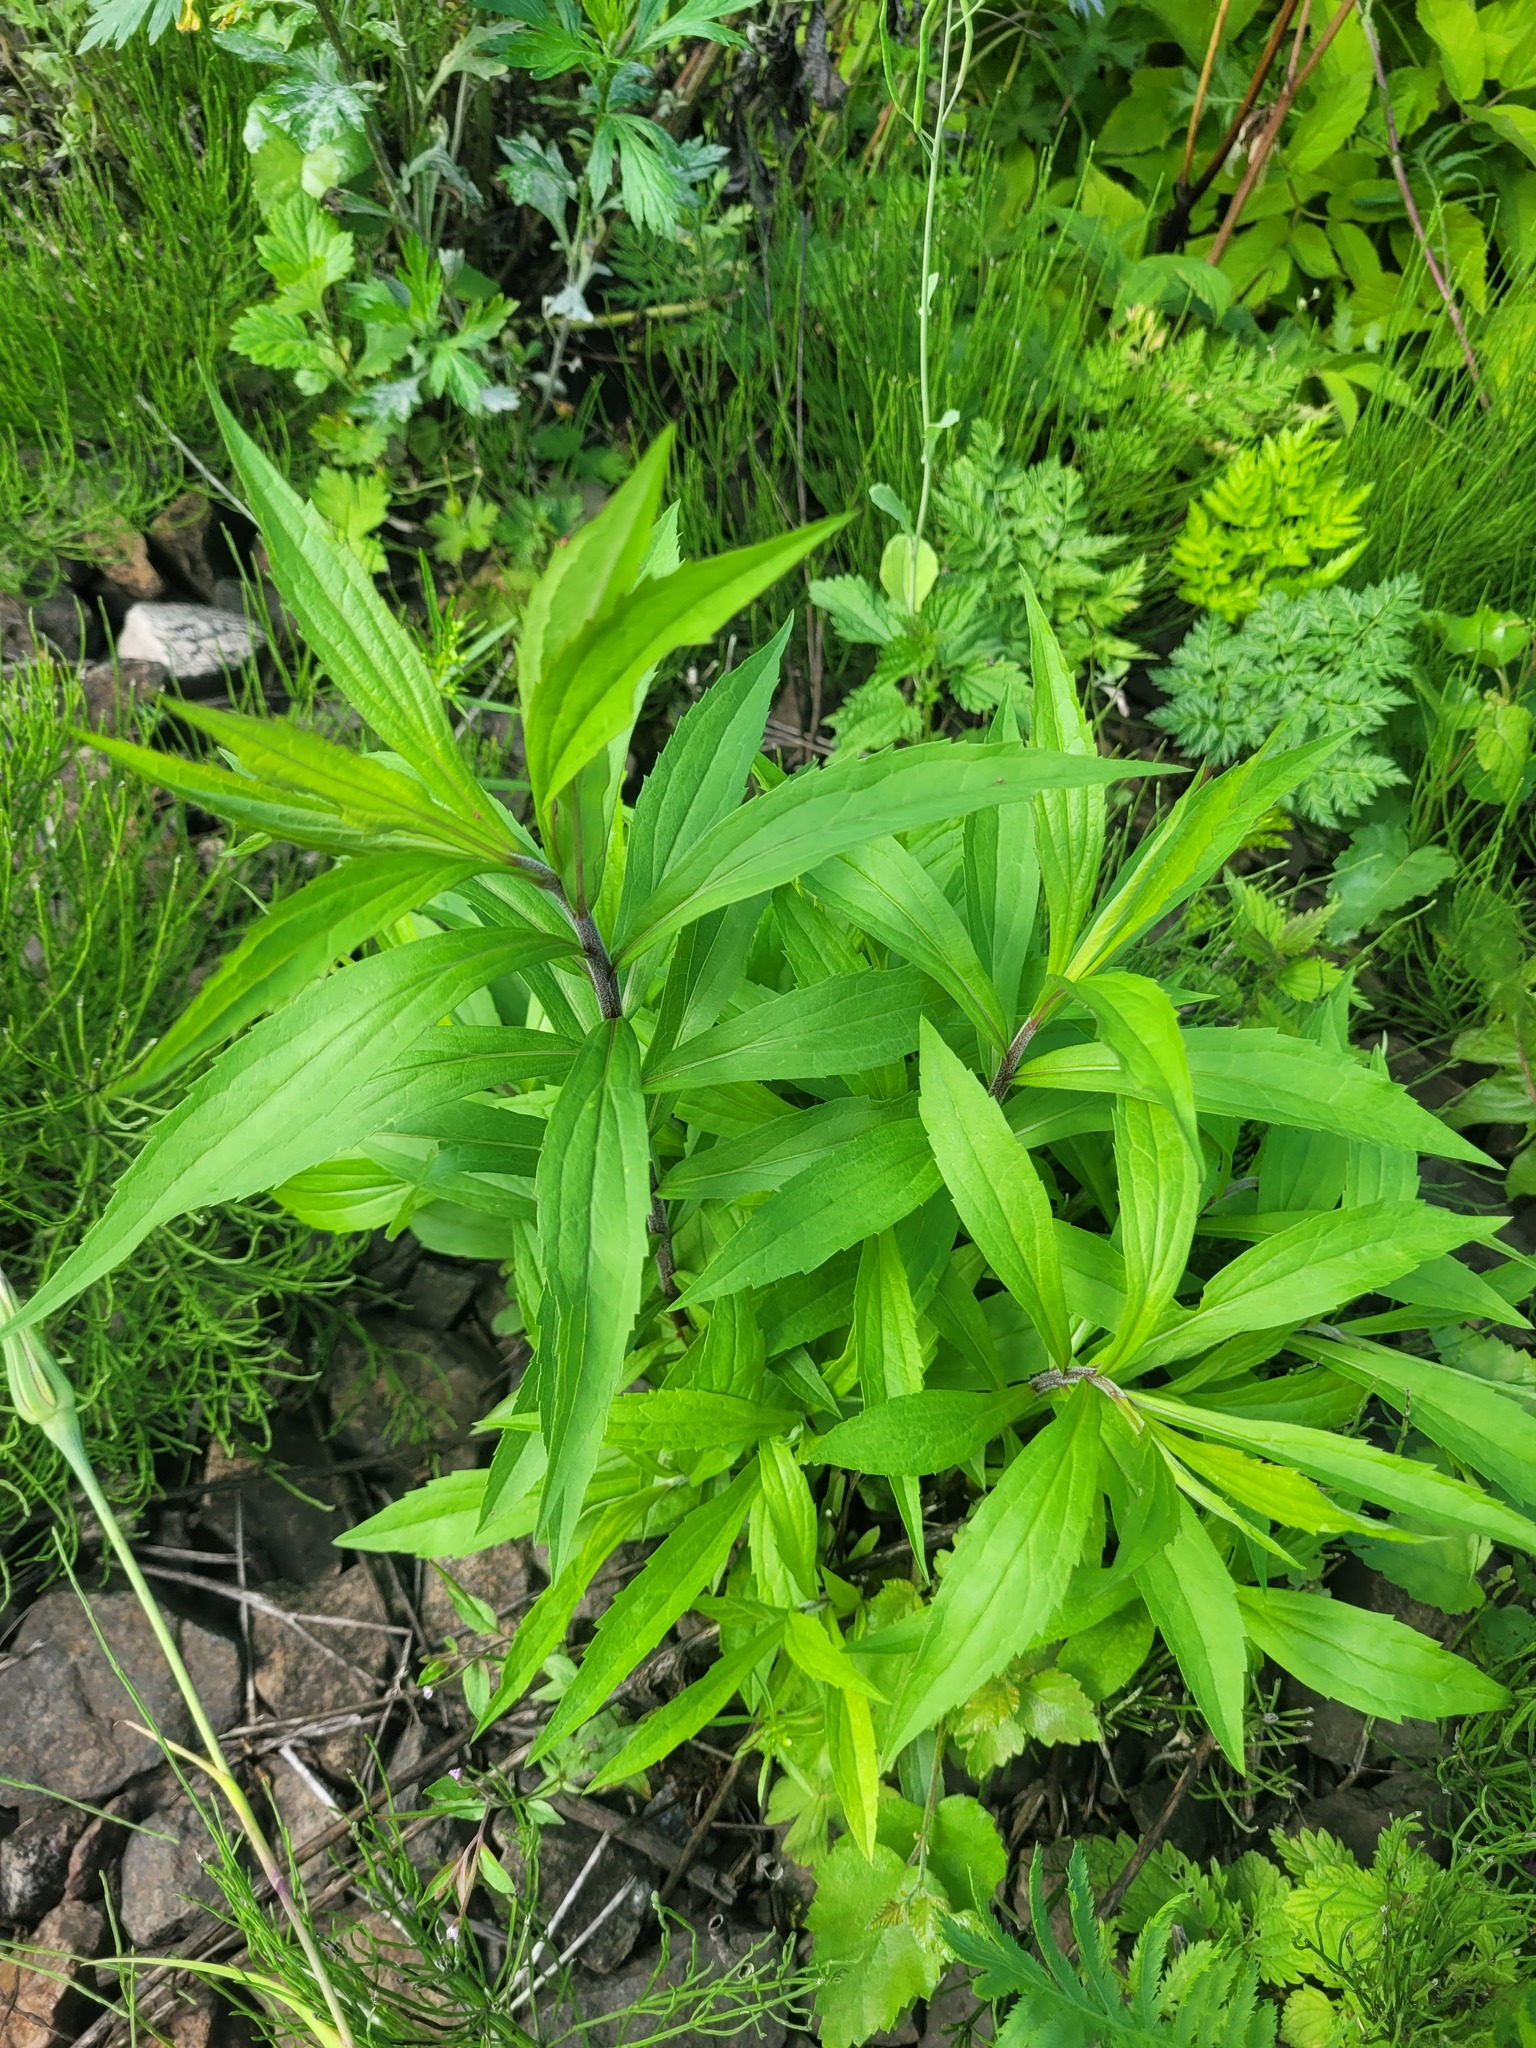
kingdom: Plantae
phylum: Tracheophyta
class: Magnoliopsida
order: Asterales
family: Asteraceae
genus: Solidago
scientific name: Solidago canadensis
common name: Canada goldenrod
